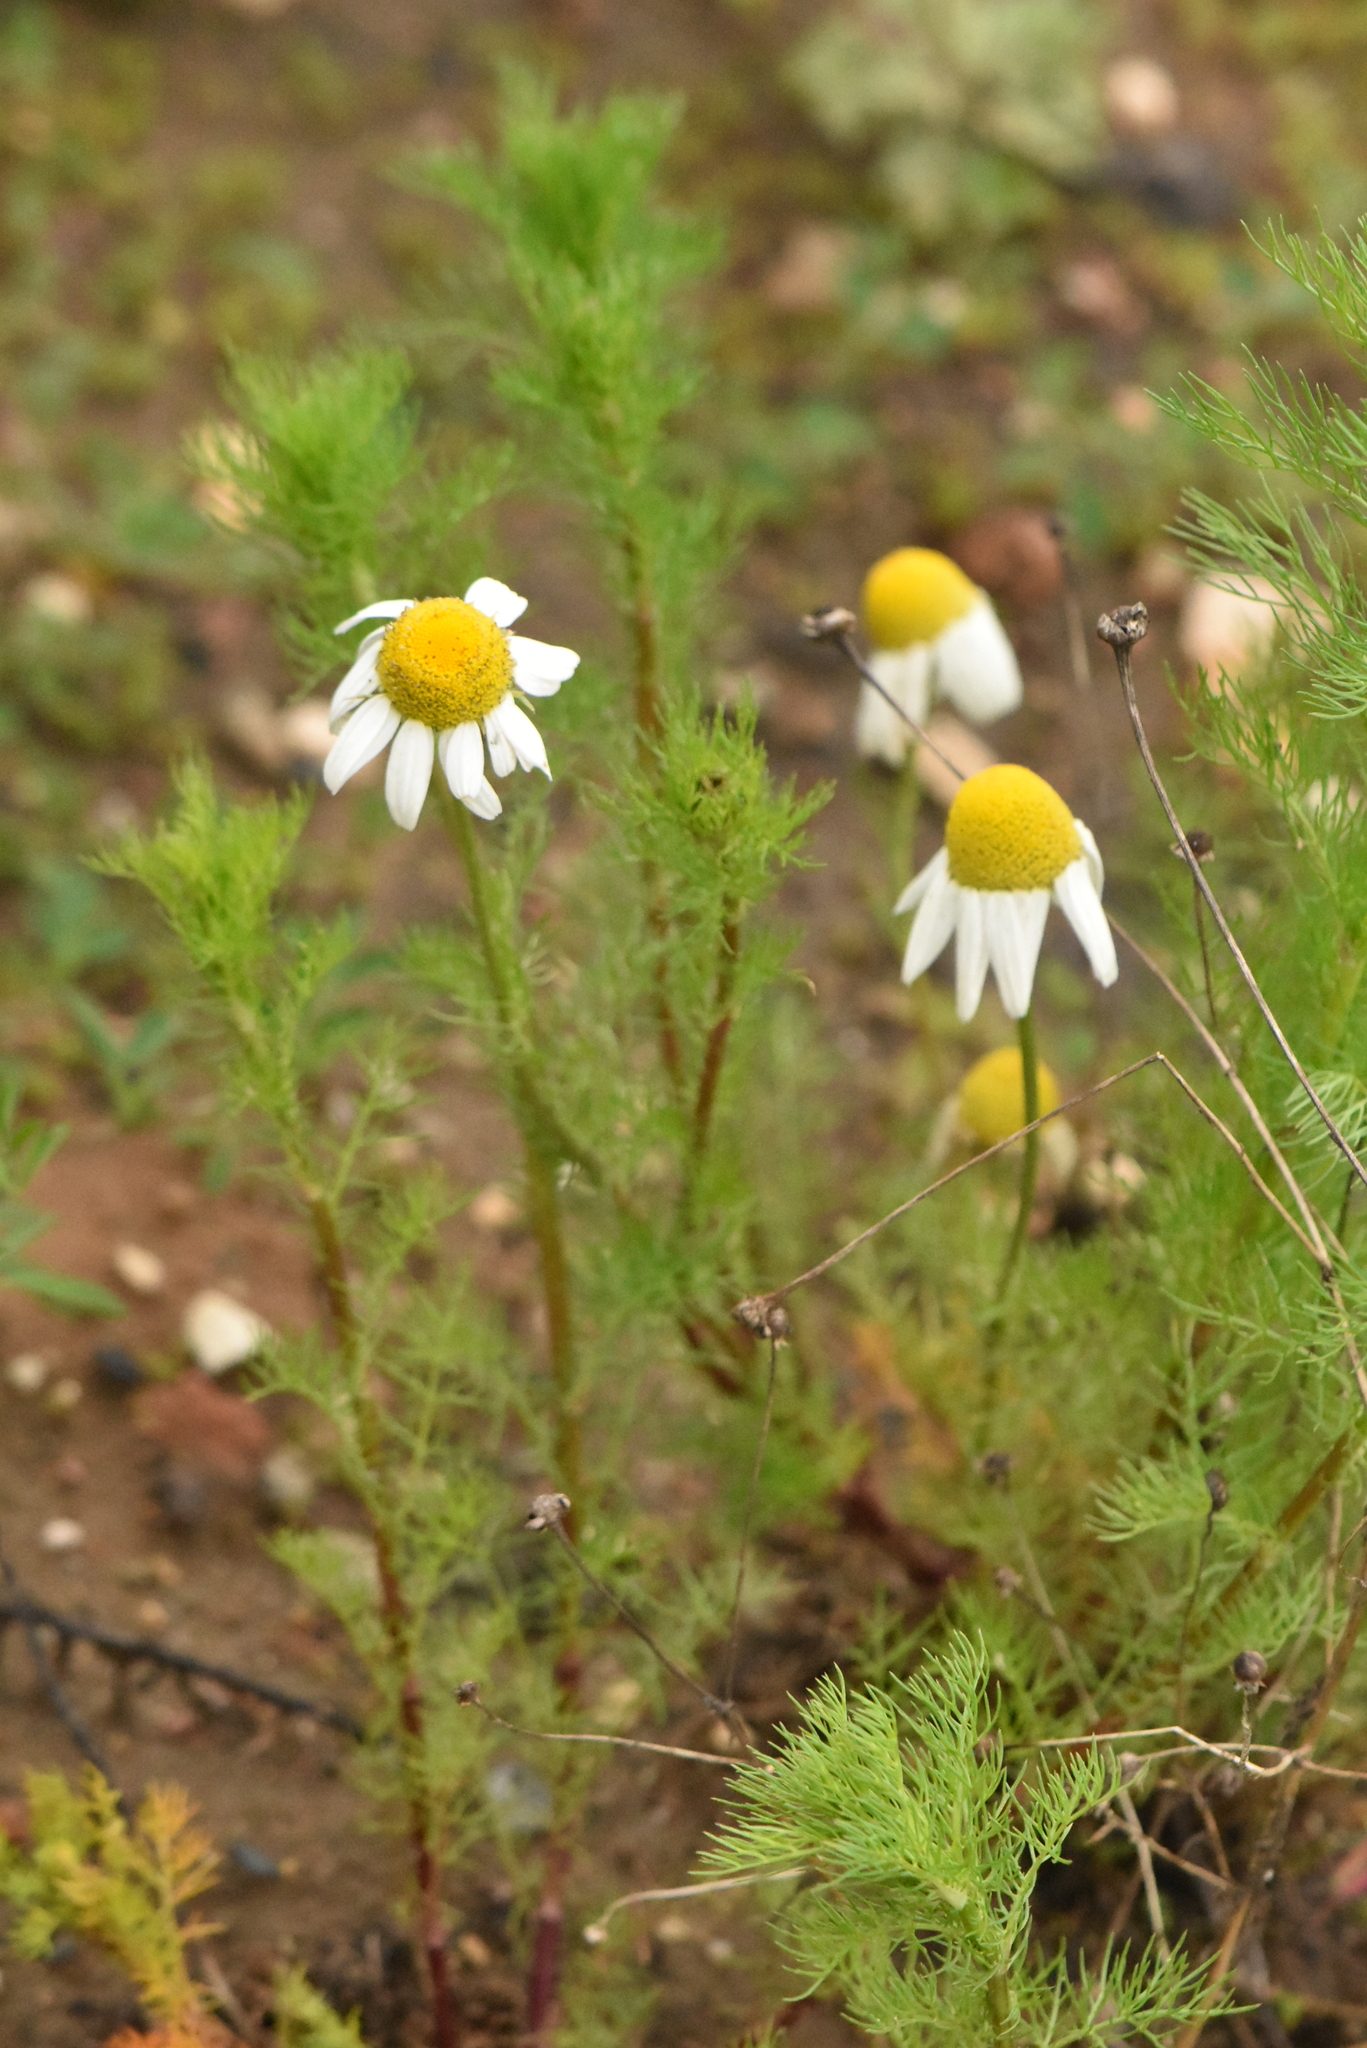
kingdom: Plantae
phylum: Tracheophyta
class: Magnoliopsida
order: Asterales
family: Asteraceae
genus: Tripleurospermum
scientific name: Tripleurospermum inodorum
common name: Scentless mayweed
